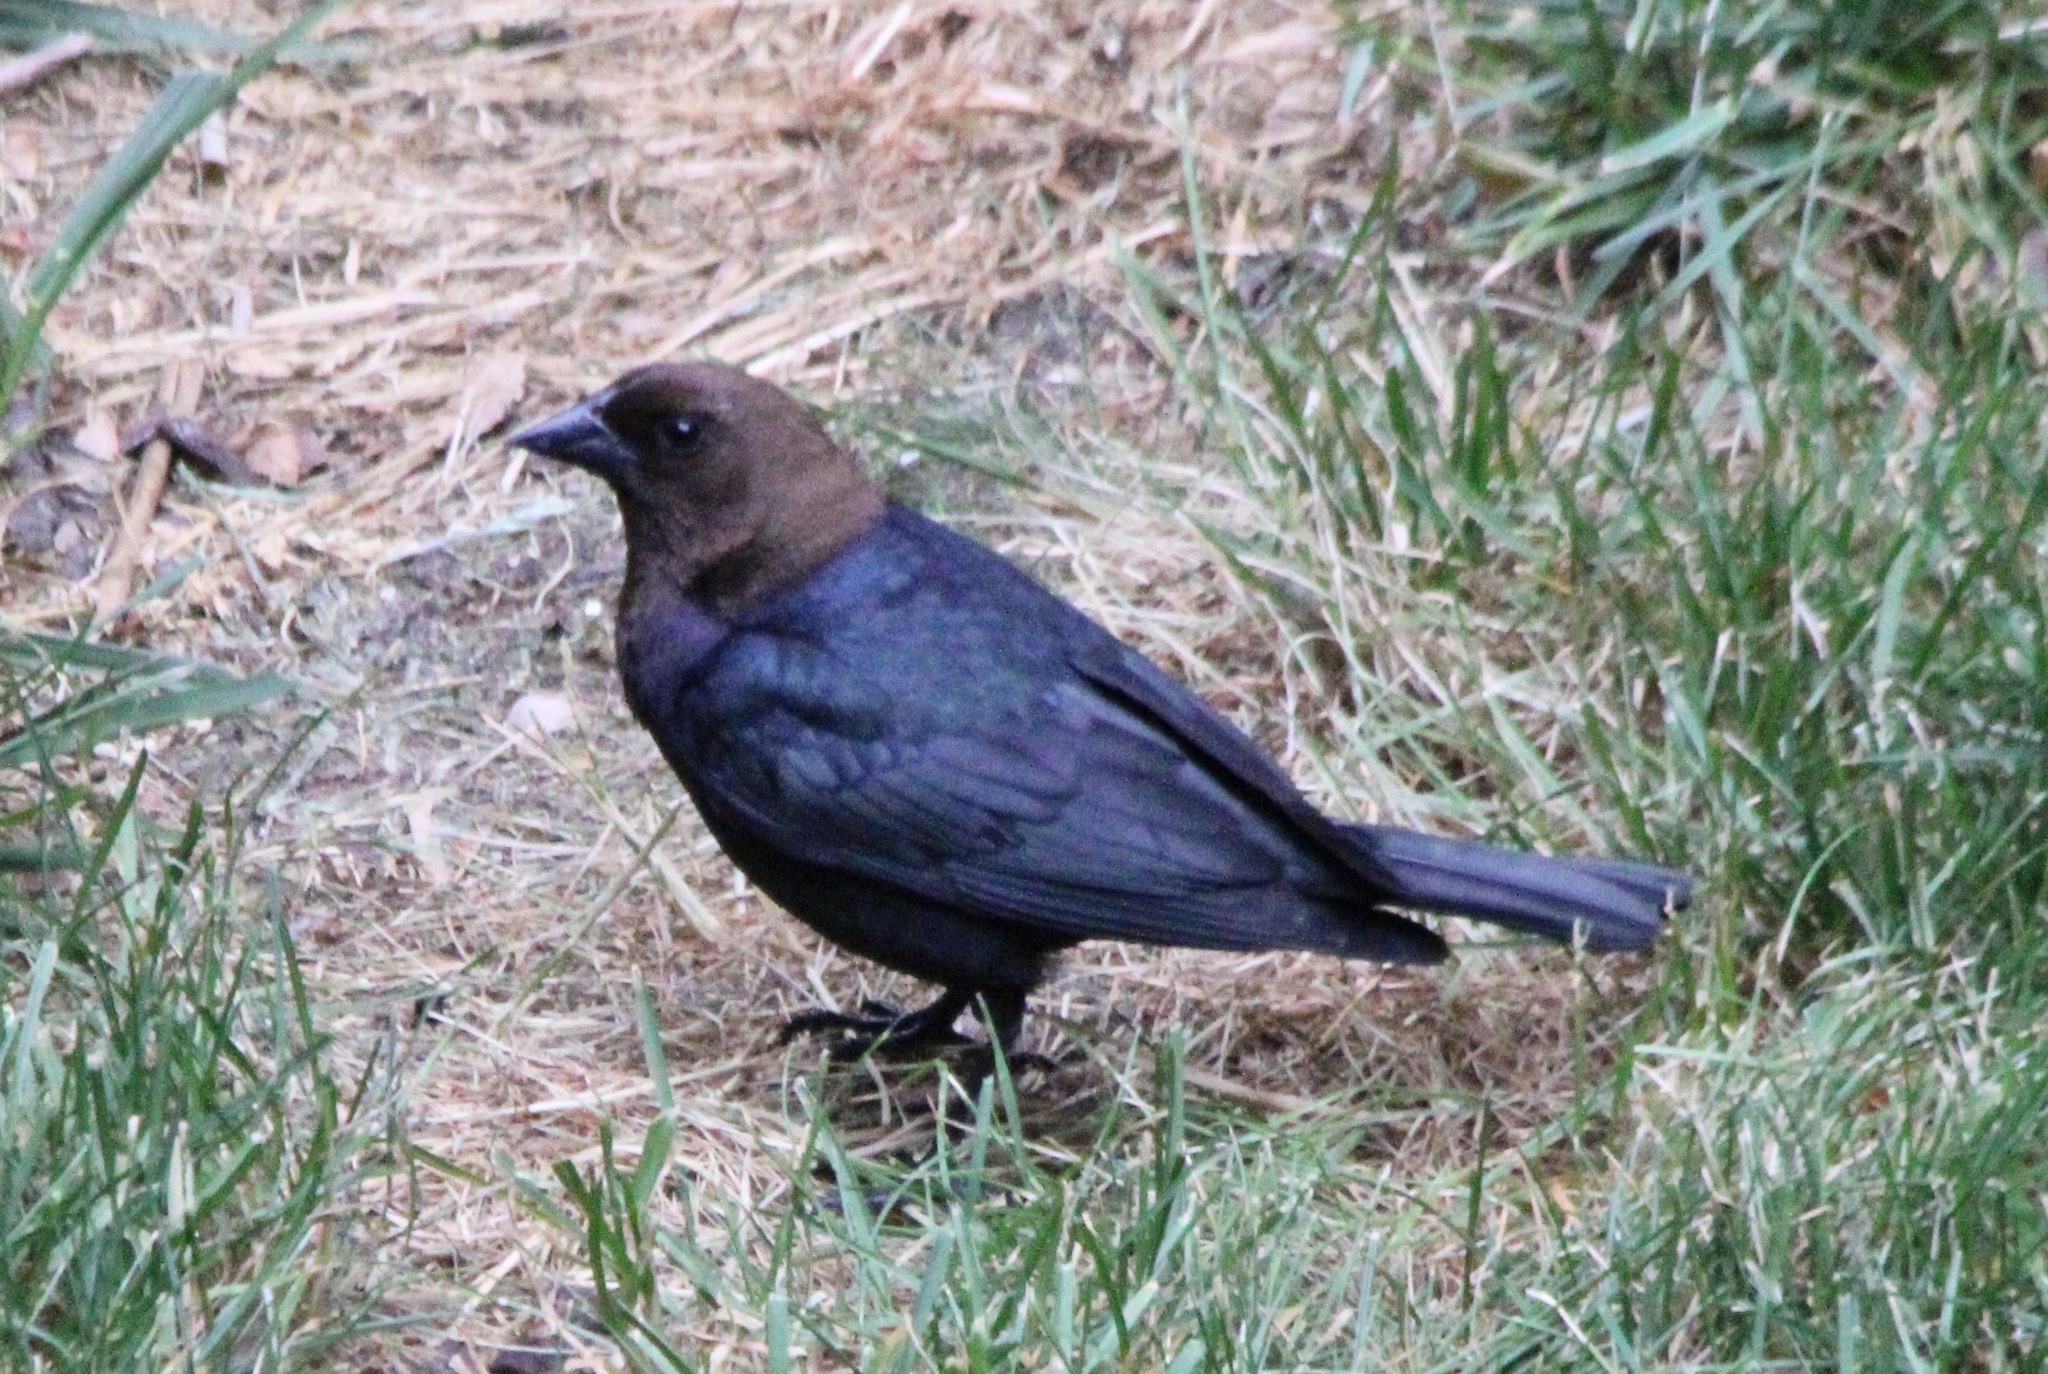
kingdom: Animalia
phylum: Chordata
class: Aves
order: Passeriformes
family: Icteridae
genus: Molothrus
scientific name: Molothrus ater
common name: Brown-headed cowbird
